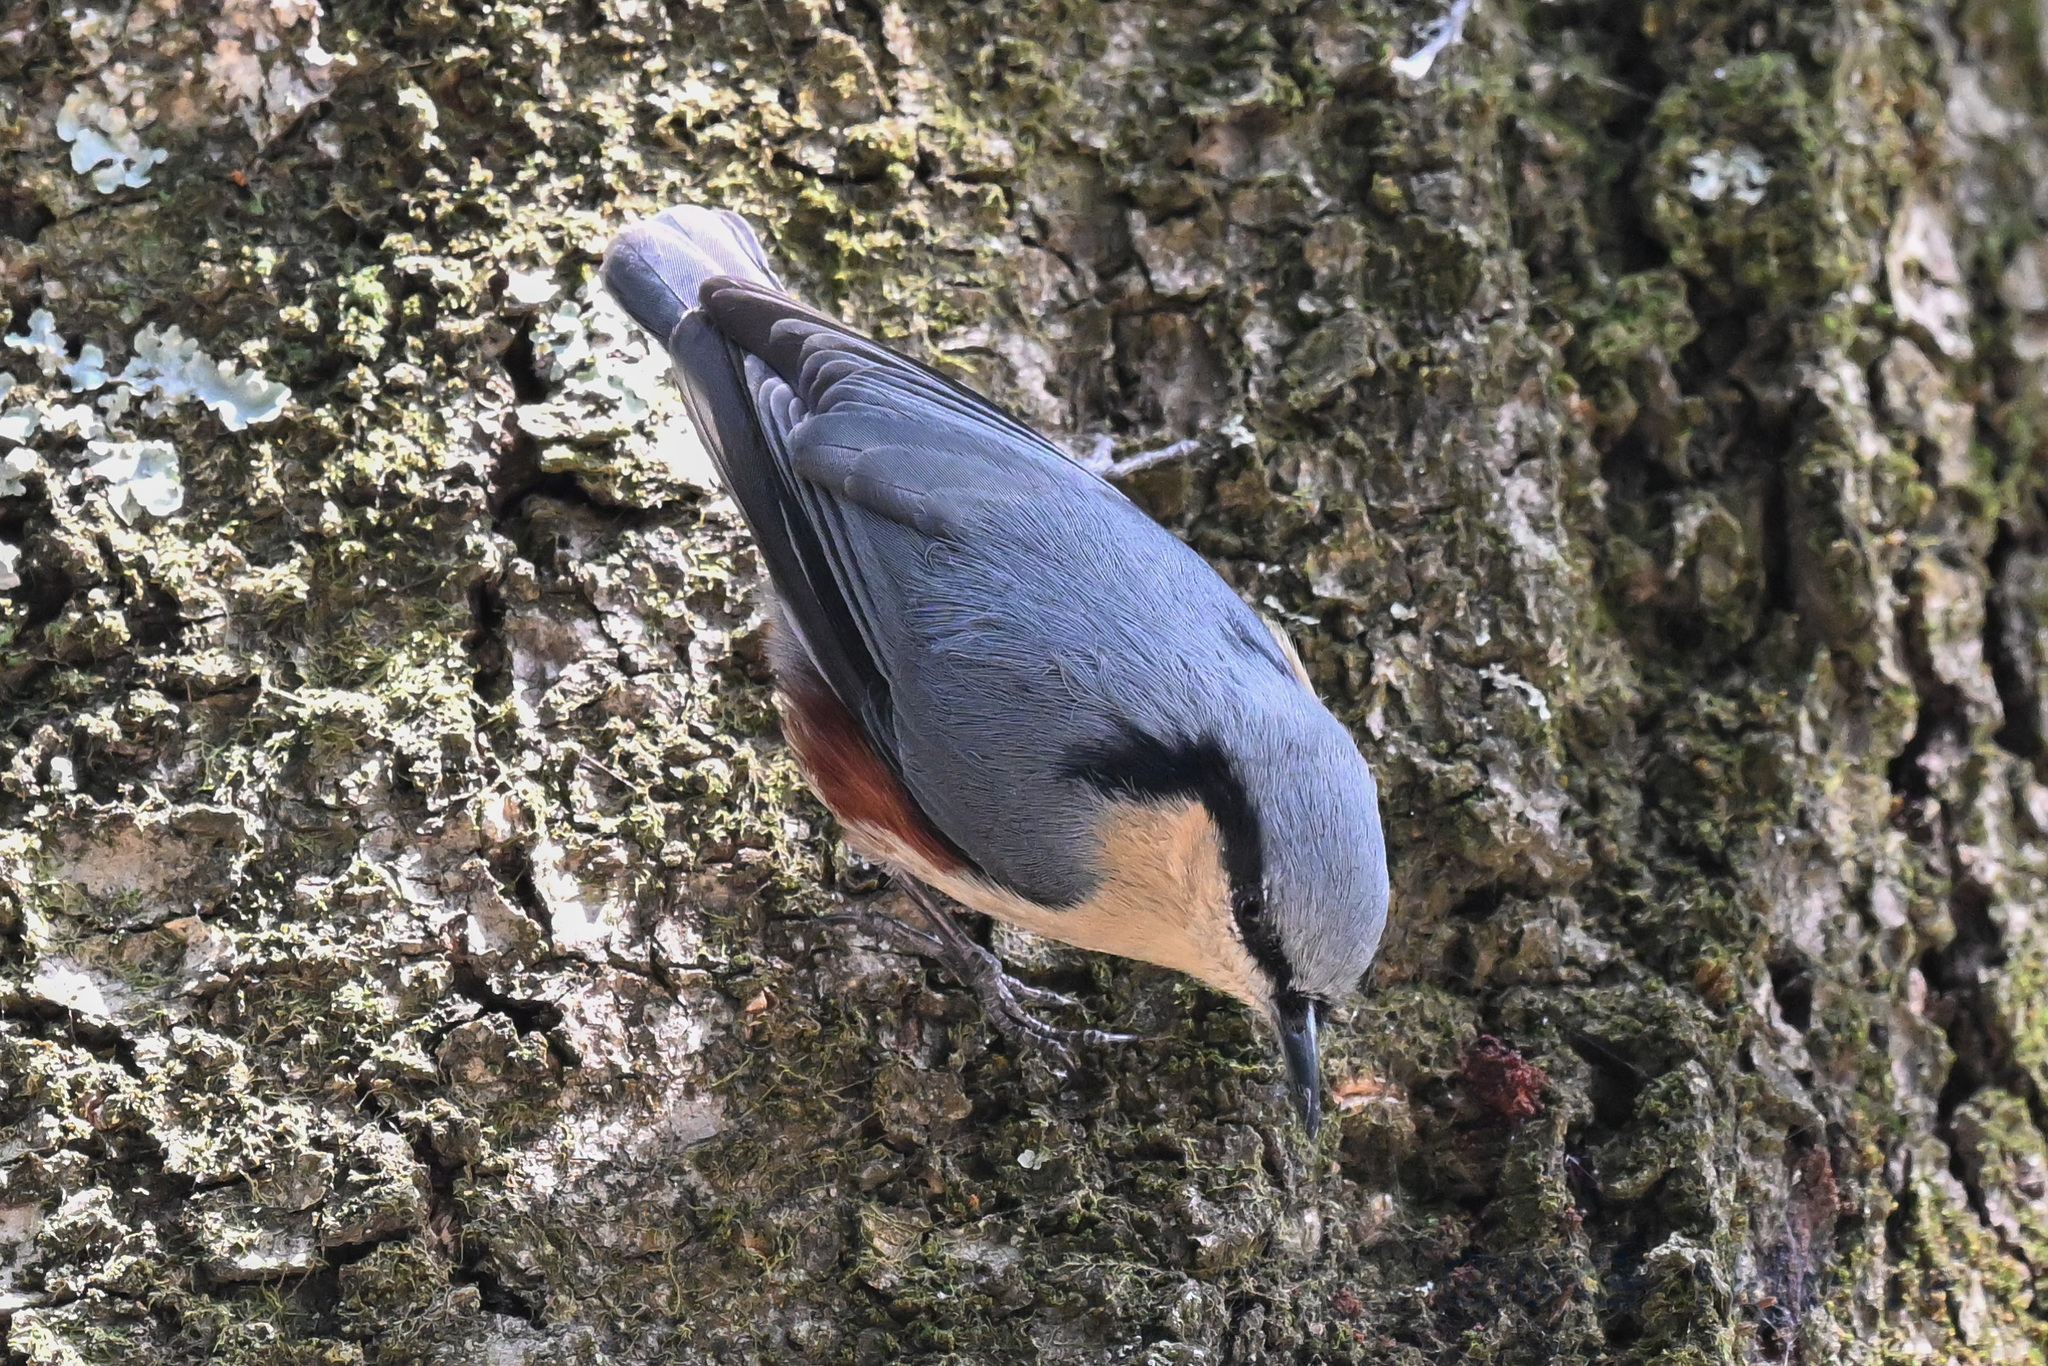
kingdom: Animalia
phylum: Chordata
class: Aves
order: Passeriformes
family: Sittidae
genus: Sitta
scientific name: Sitta nagaensis
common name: Chestnut-vented nuthatch
